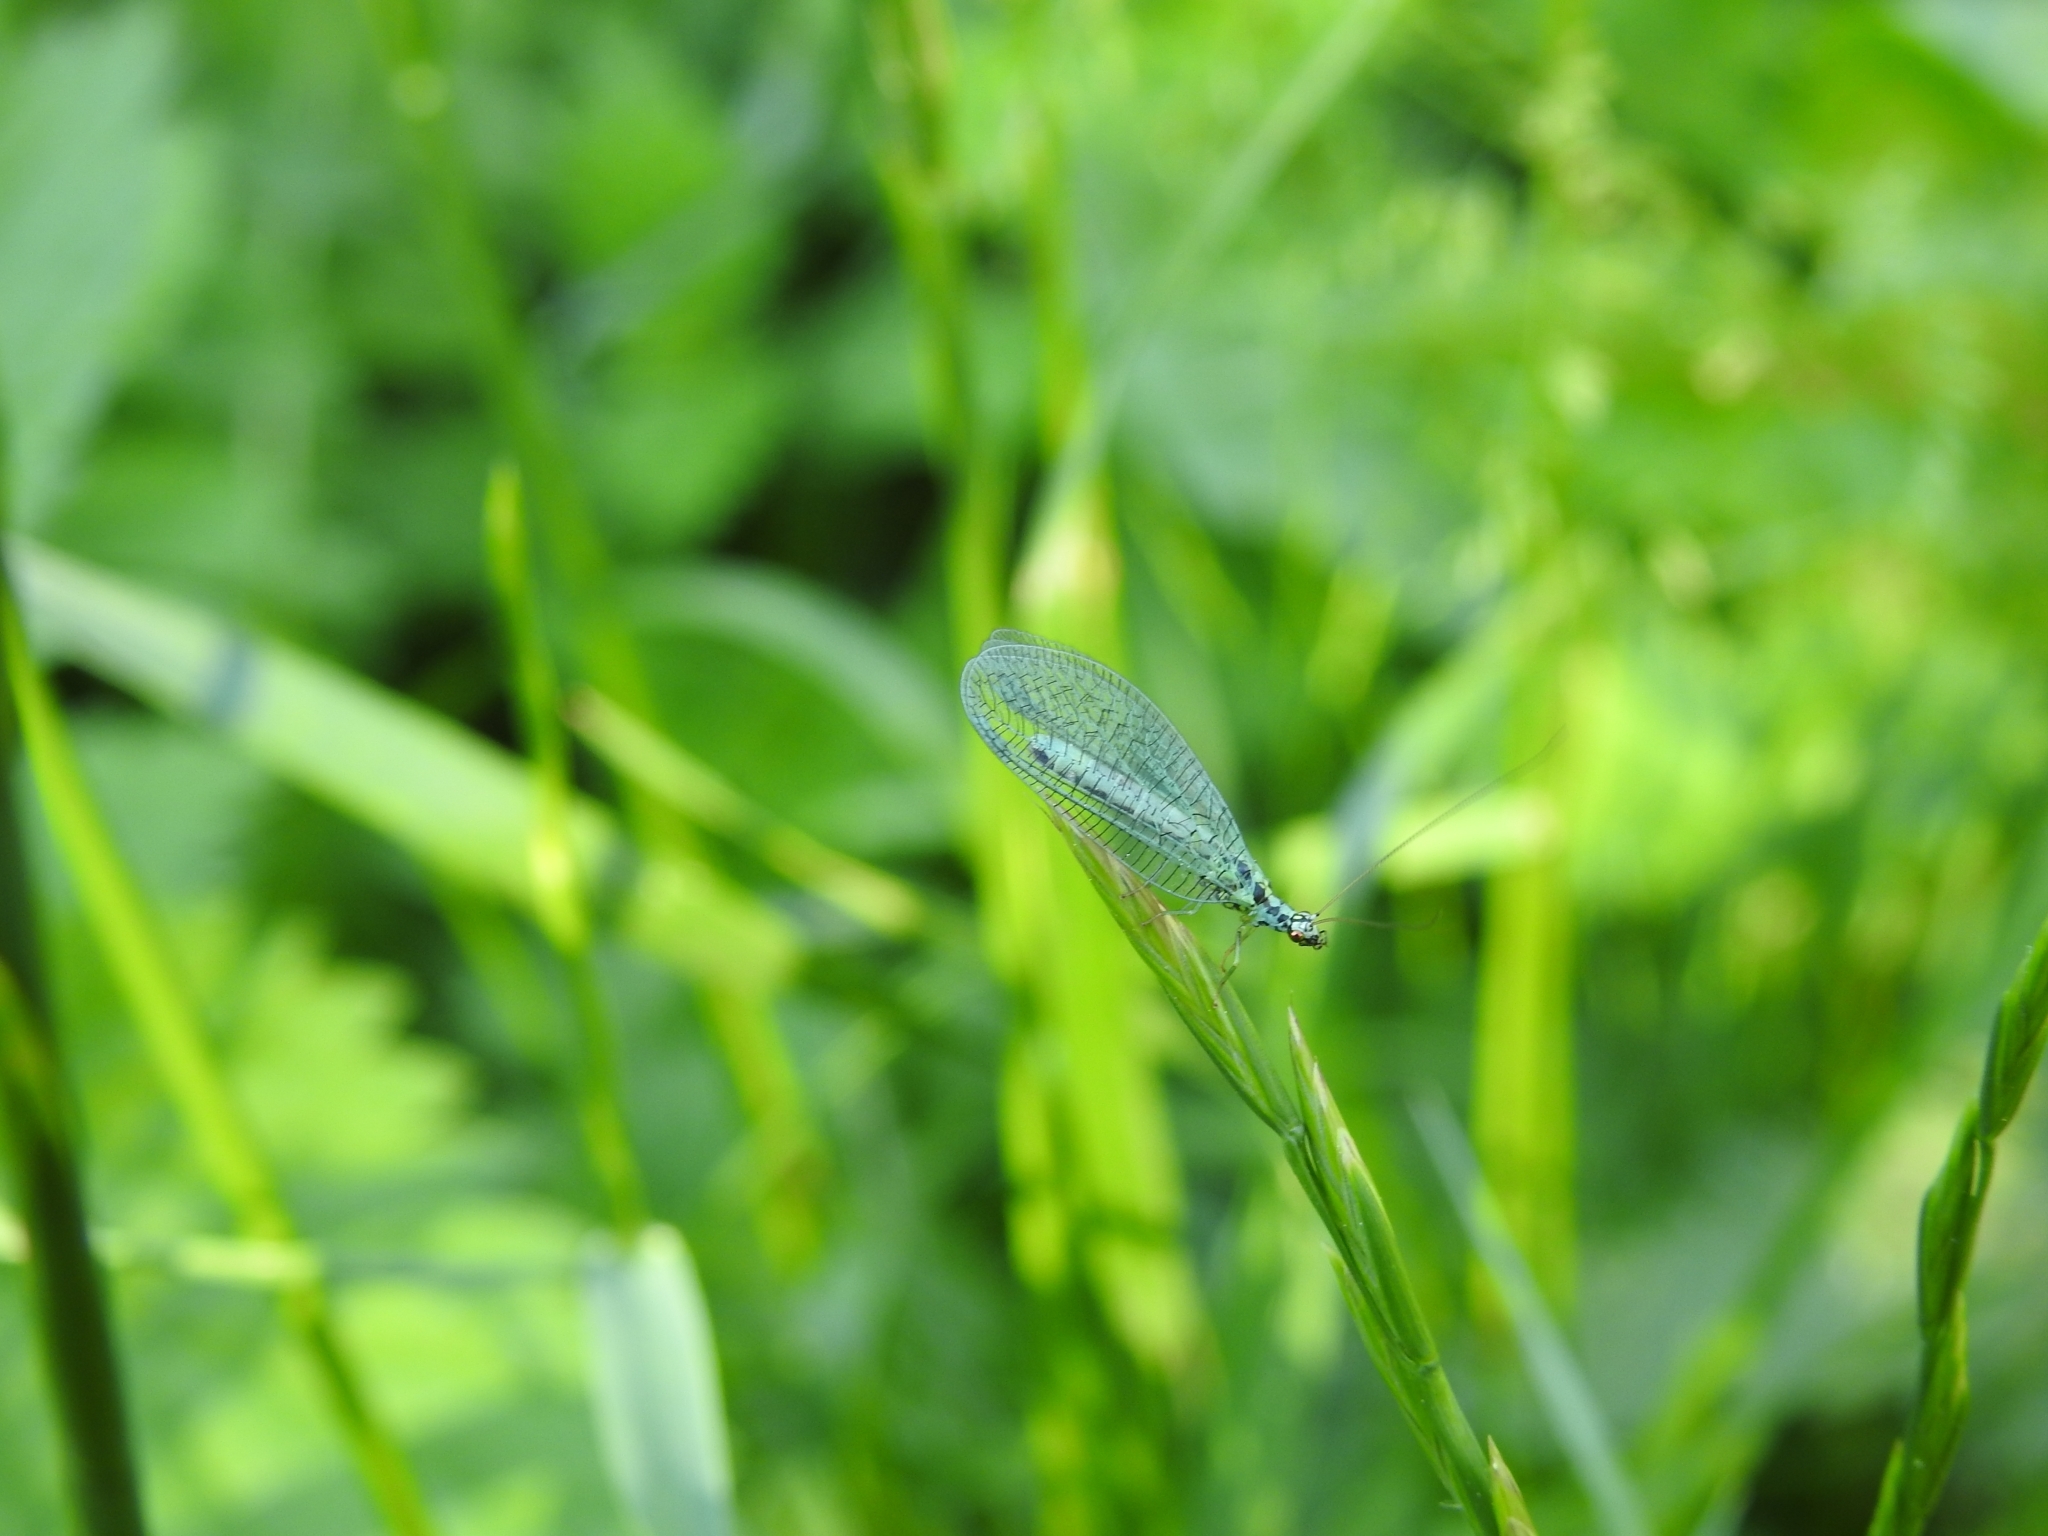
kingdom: Animalia
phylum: Arthropoda
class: Insecta
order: Neuroptera
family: Chrysopidae
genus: Chrysopa
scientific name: Chrysopa perla
